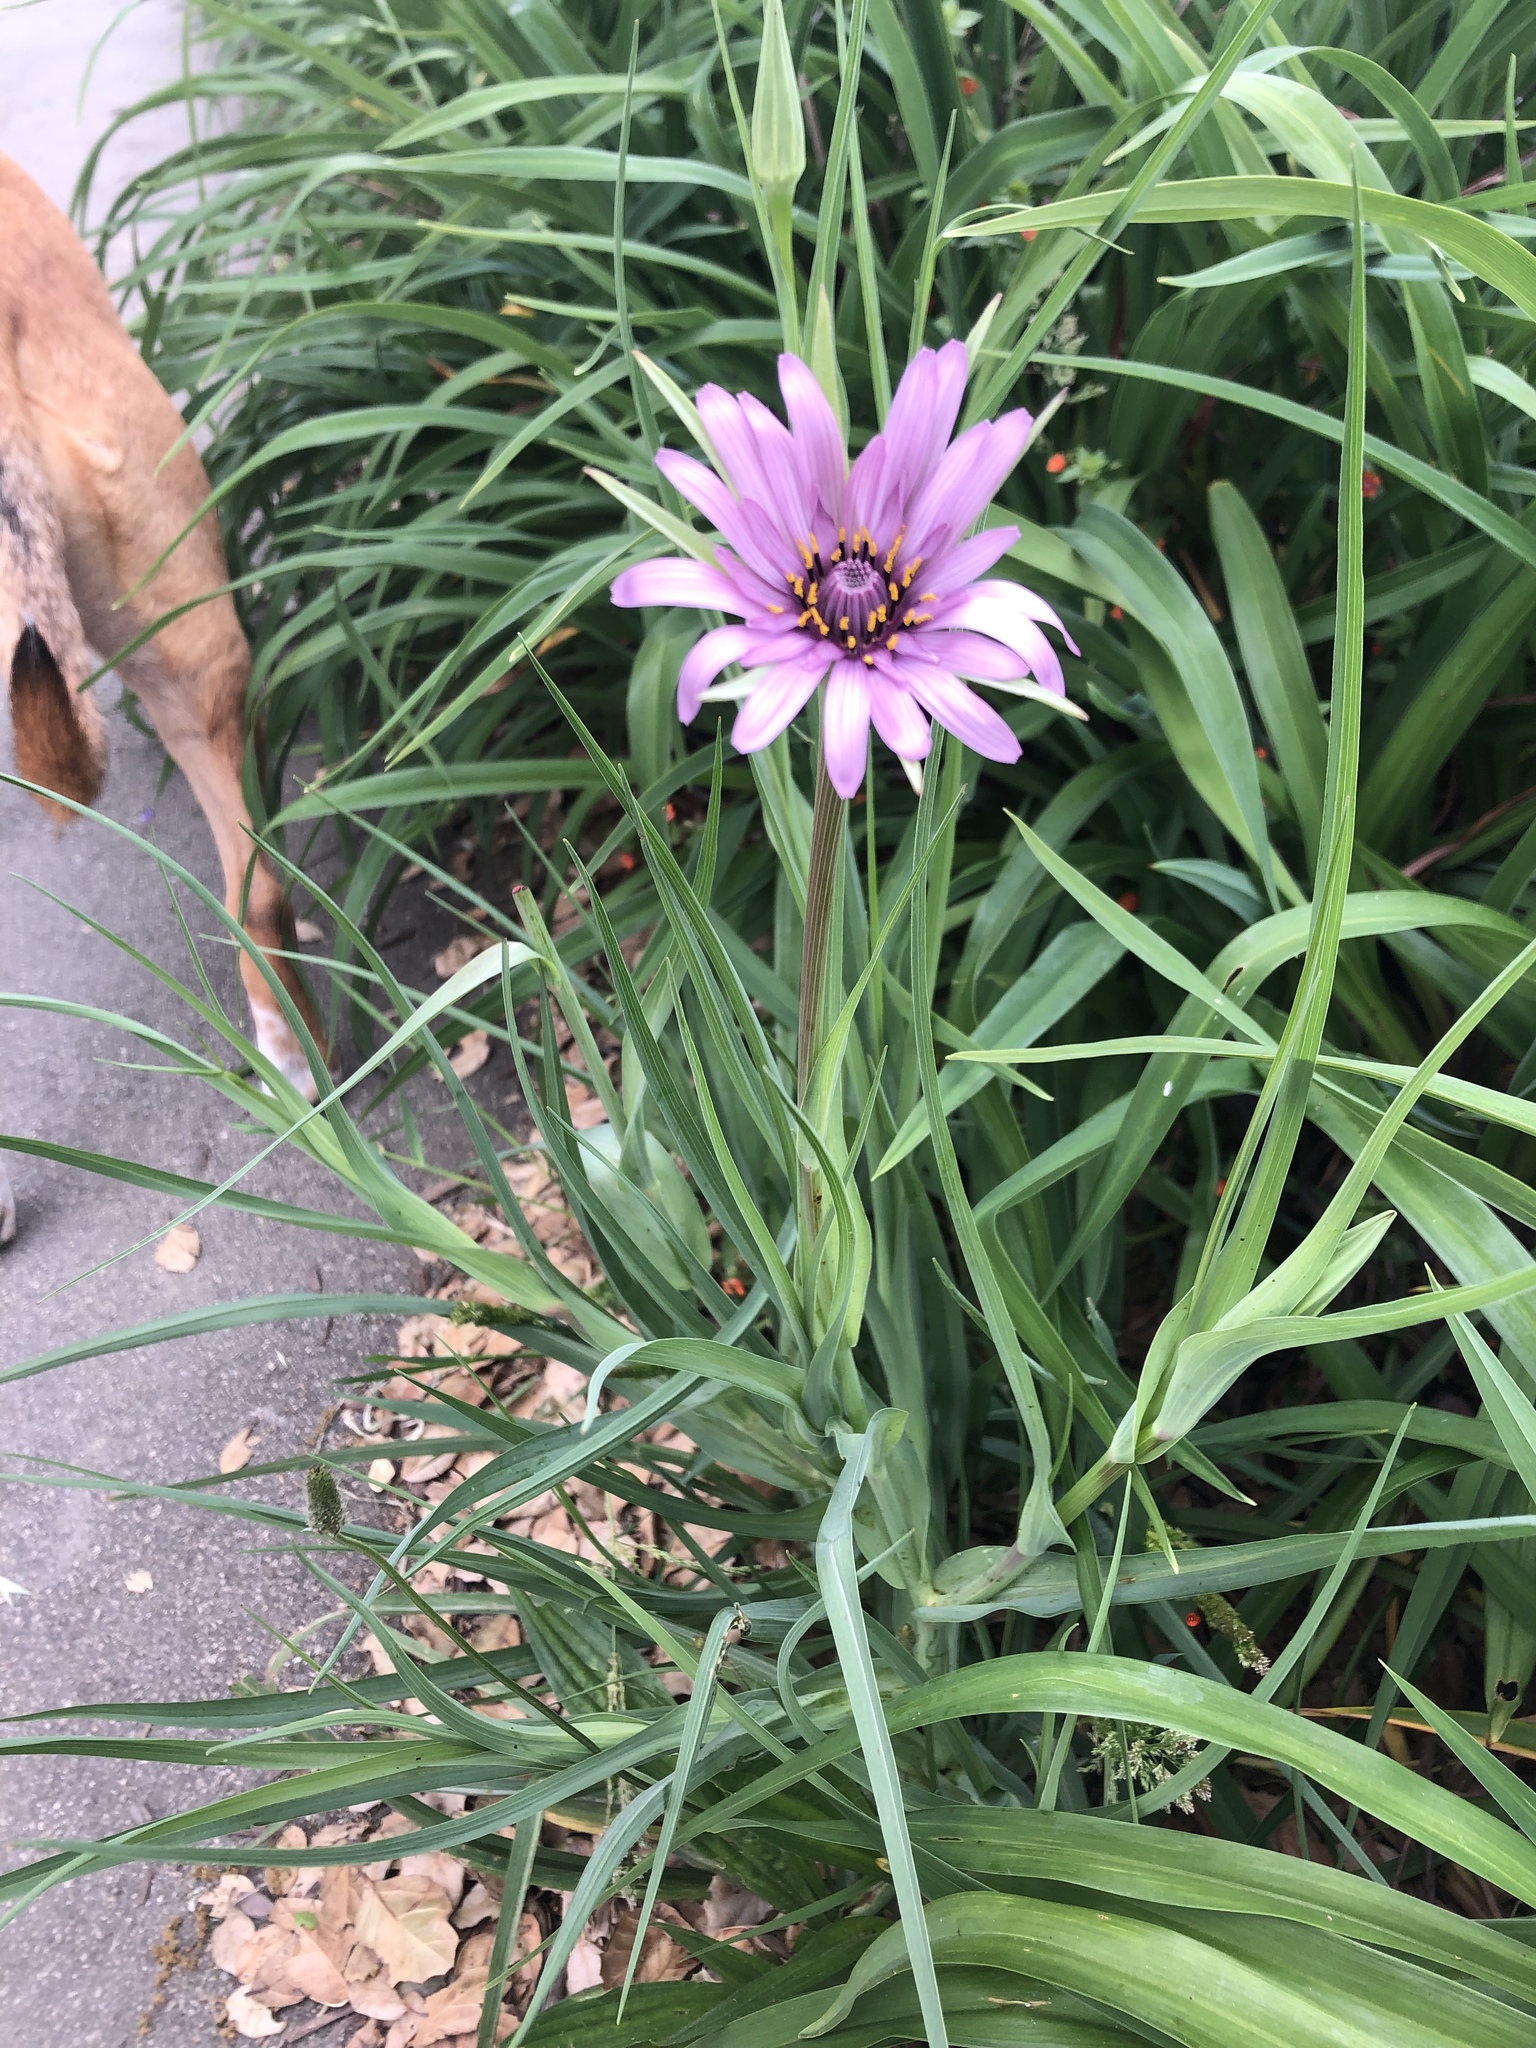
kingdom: Plantae
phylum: Tracheophyta
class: Magnoliopsida
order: Asterales
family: Asteraceae
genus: Tragopogon
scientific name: Tragopogon porrifolius
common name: Salsify
